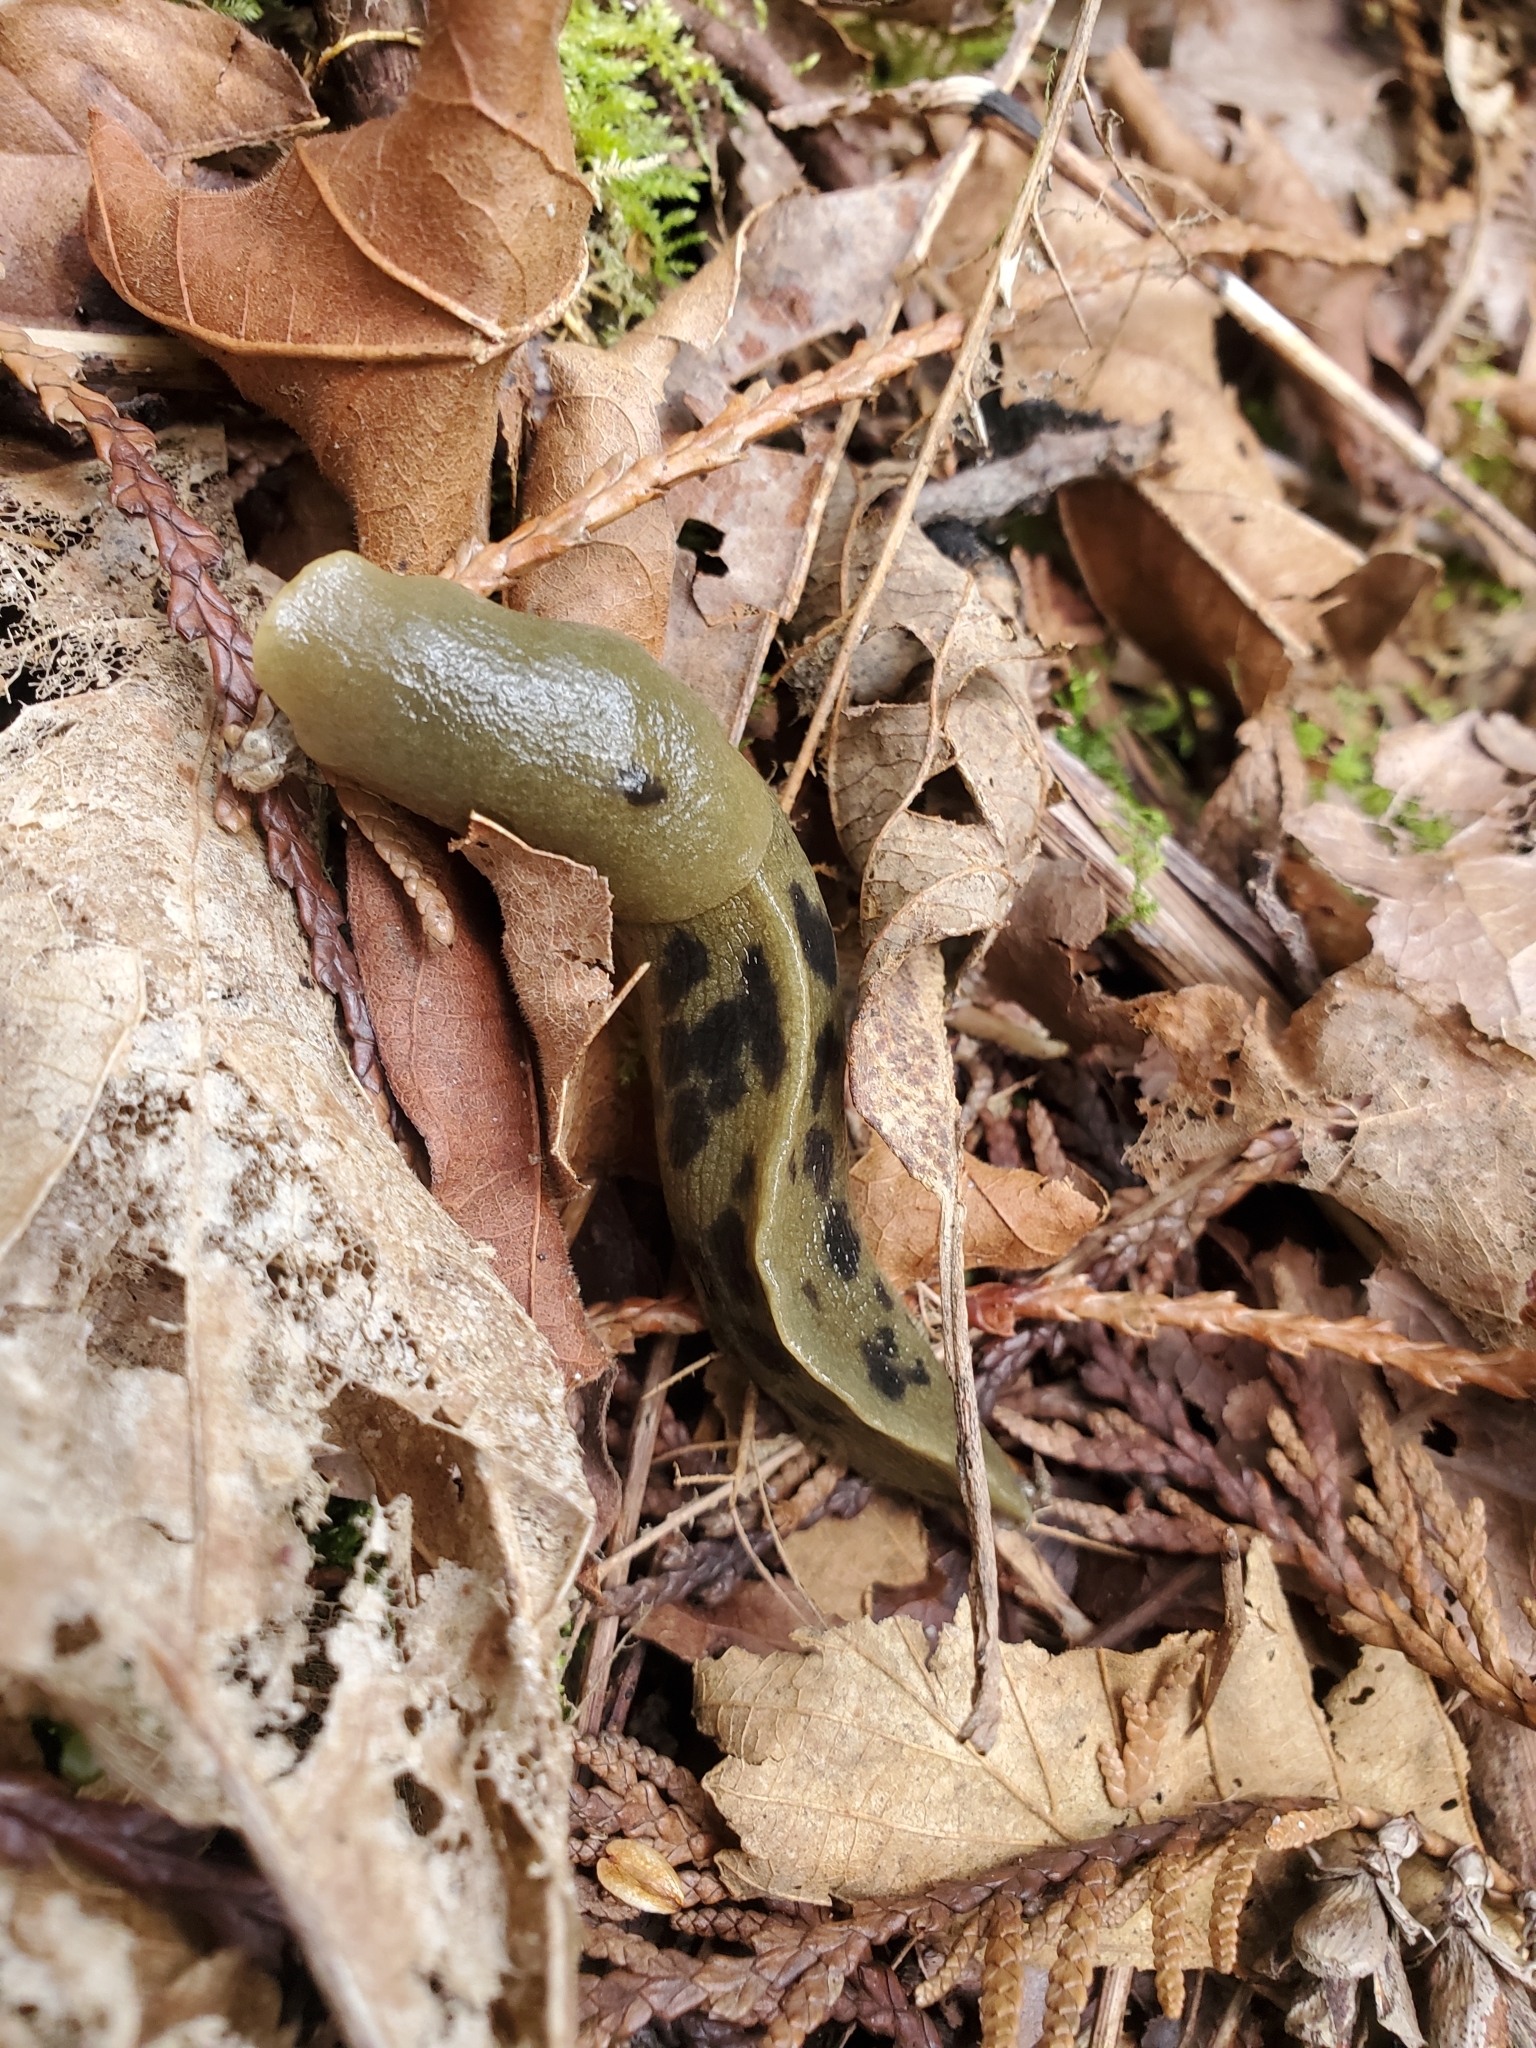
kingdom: Animalia
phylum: Mollusca
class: Gastropoda
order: Stylommatophora
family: Ariolimacidae
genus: Ariolimax
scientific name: Ariolimax columbianus
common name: Pacific banana slug
